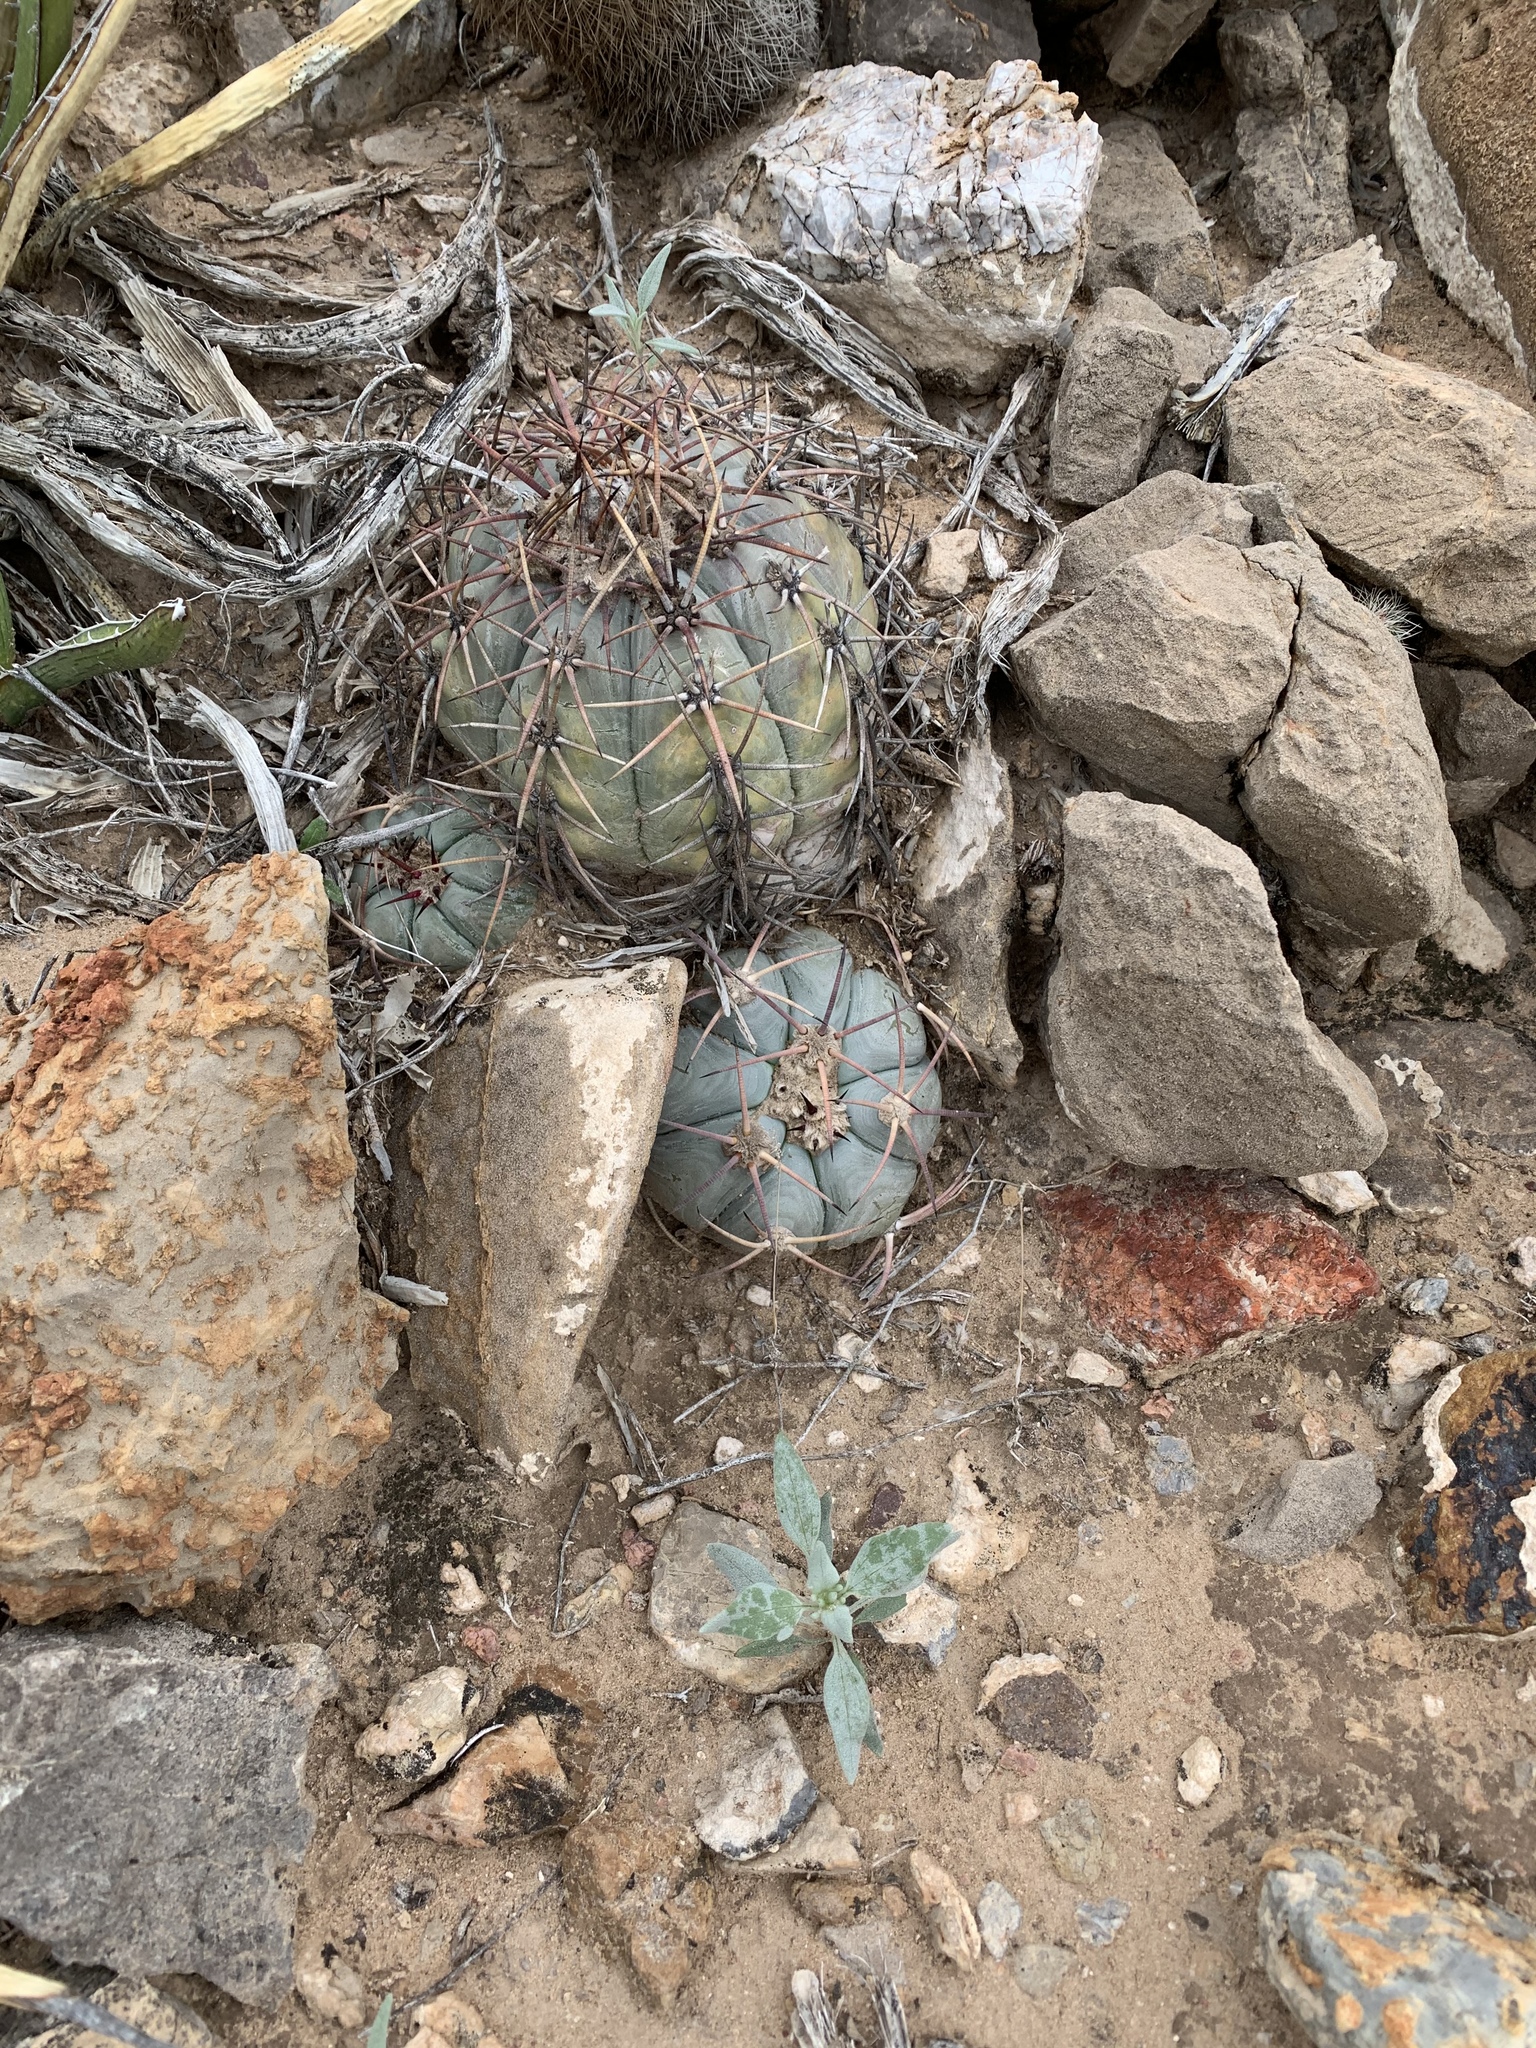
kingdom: Plantae
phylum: Tracheophyta
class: Magnoliopsida
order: Caryophyllales
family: Cactaceae
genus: Echinocactus
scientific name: Echinocactus horizonthalonius
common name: Devilshead
